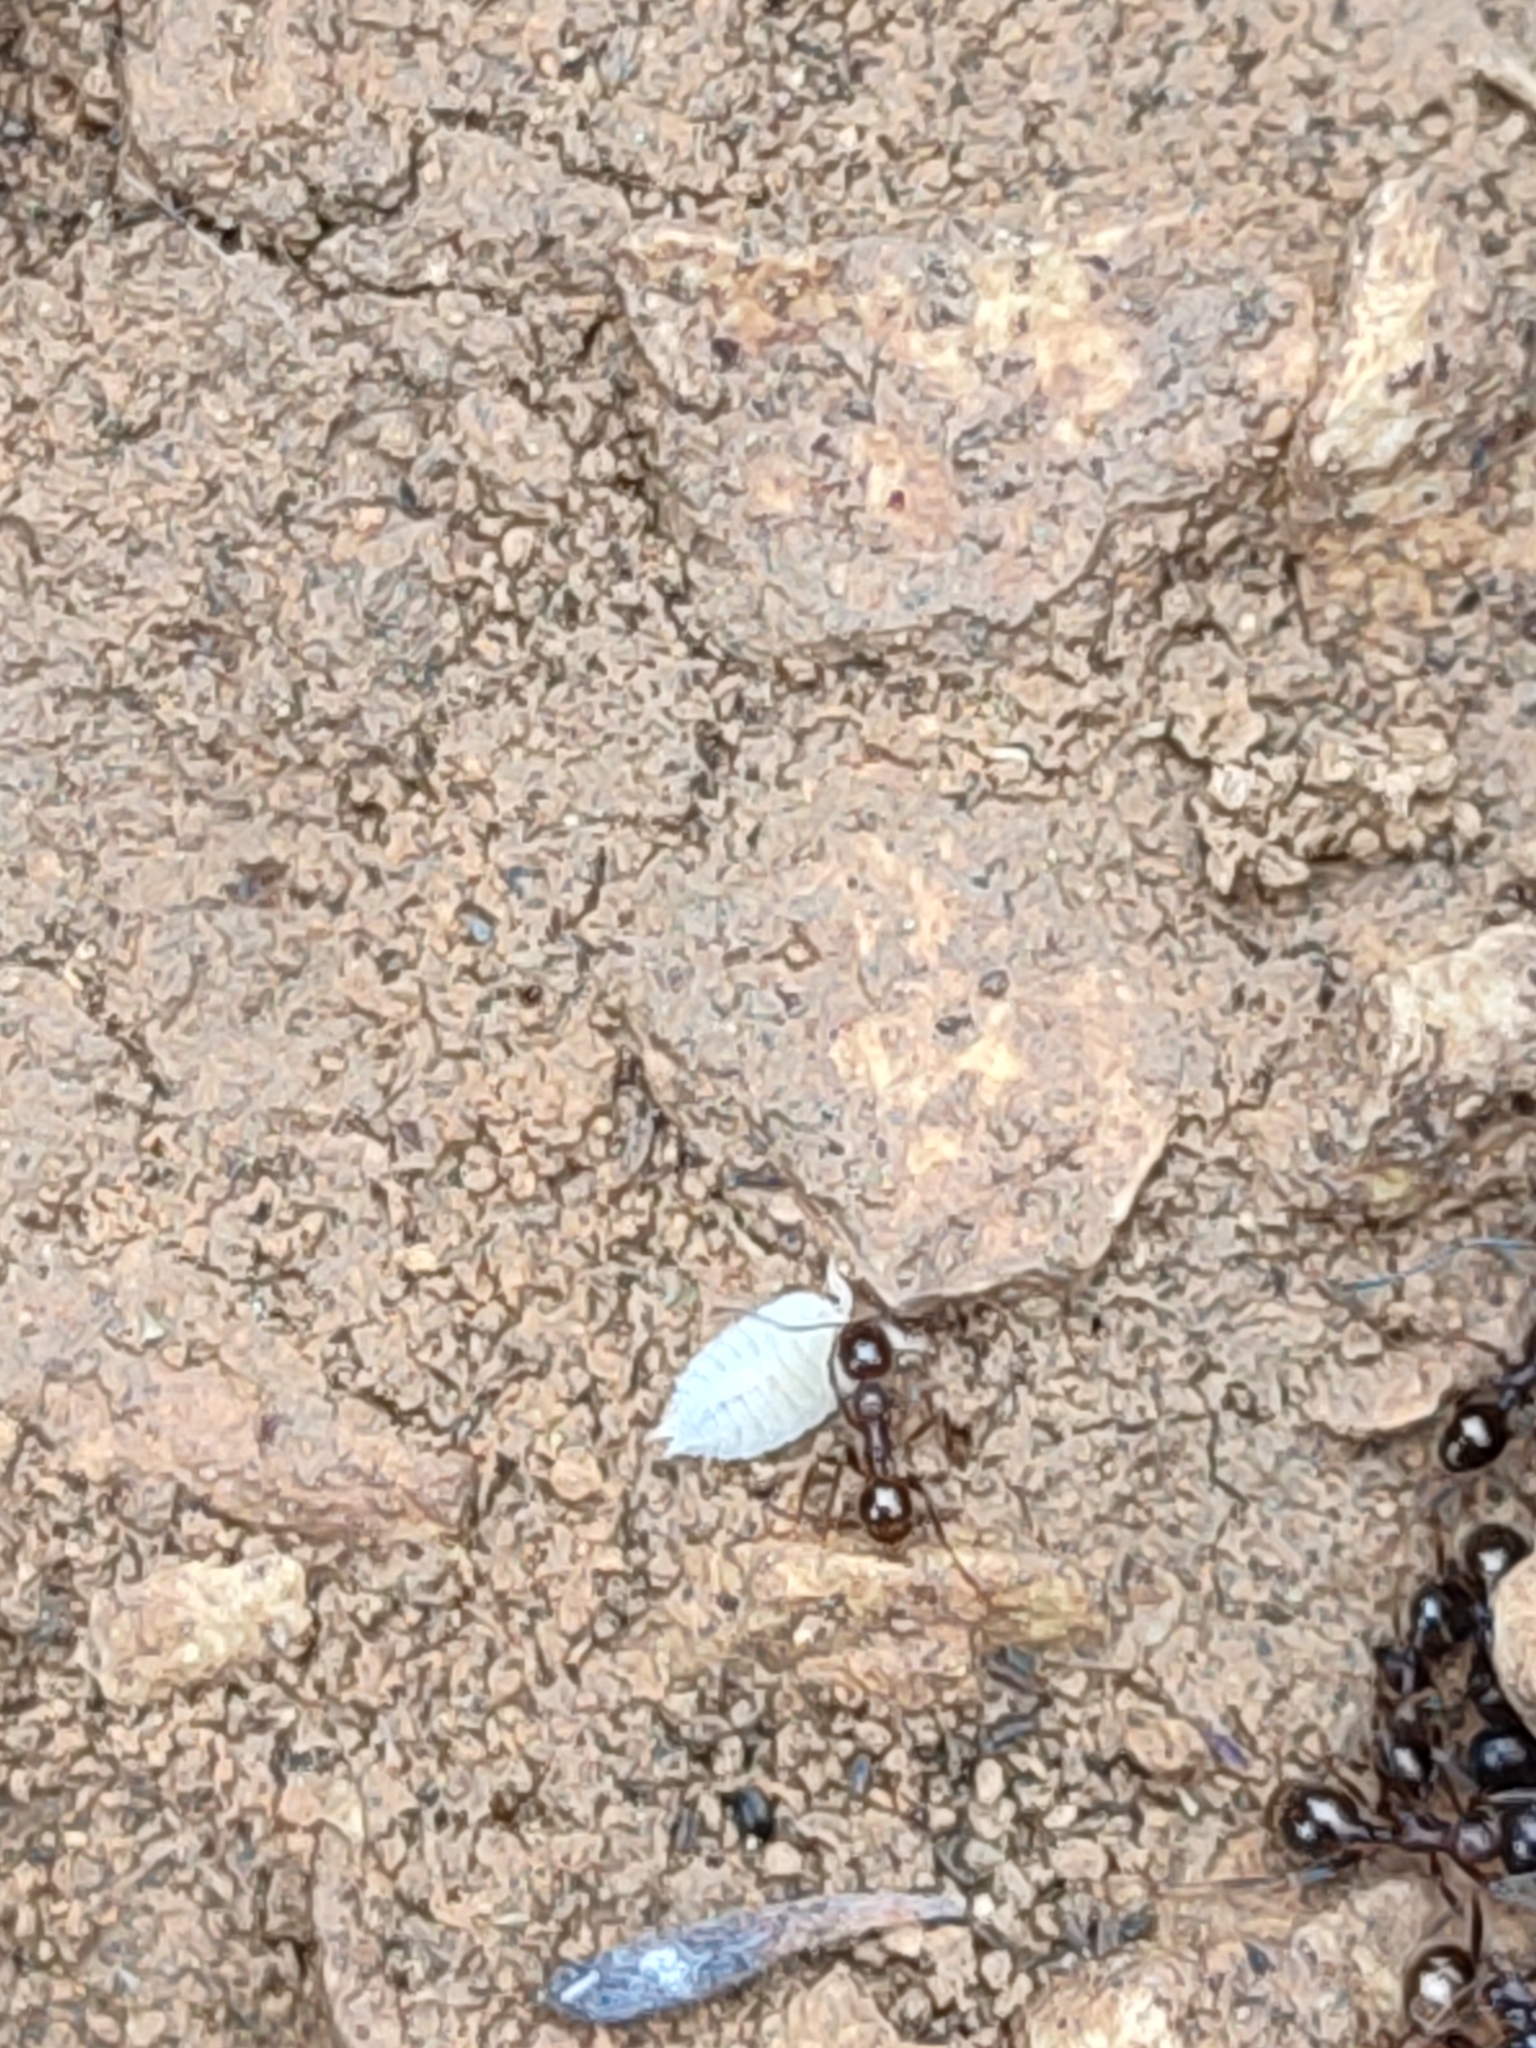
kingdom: Animalia
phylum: Arthropoda
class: Malacostraca
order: Isopoda
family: Platyarthridae
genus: Platyarthrus
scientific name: Platyarthrus hoffmannseggii
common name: Ant woodlouse
